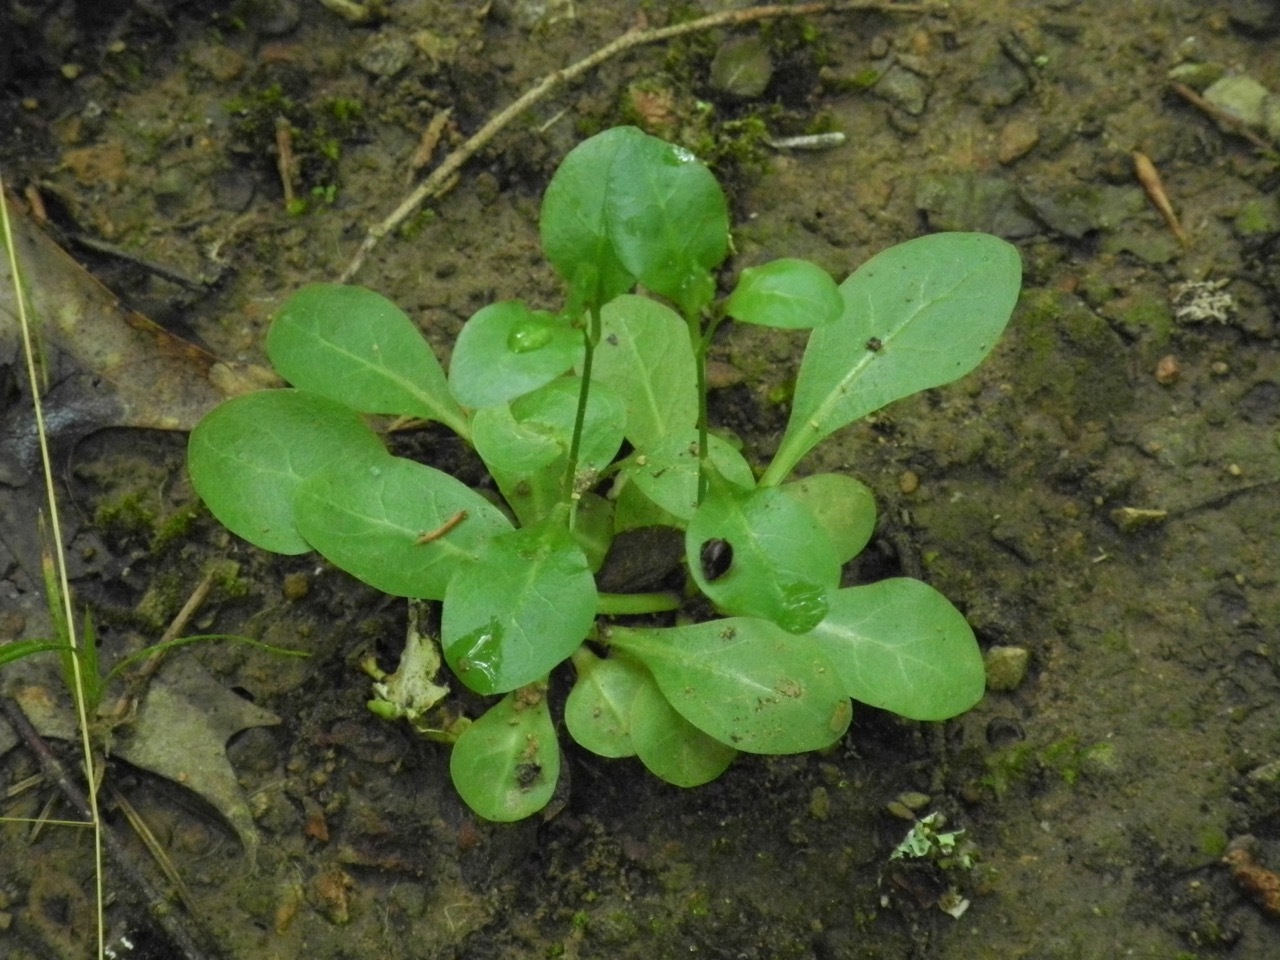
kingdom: Plantae
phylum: Tracheophyta
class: Magnoliopsida
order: Ericales
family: Primulaceae
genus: Samolus
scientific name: Samolus parviflorus
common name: False water pimpernel
